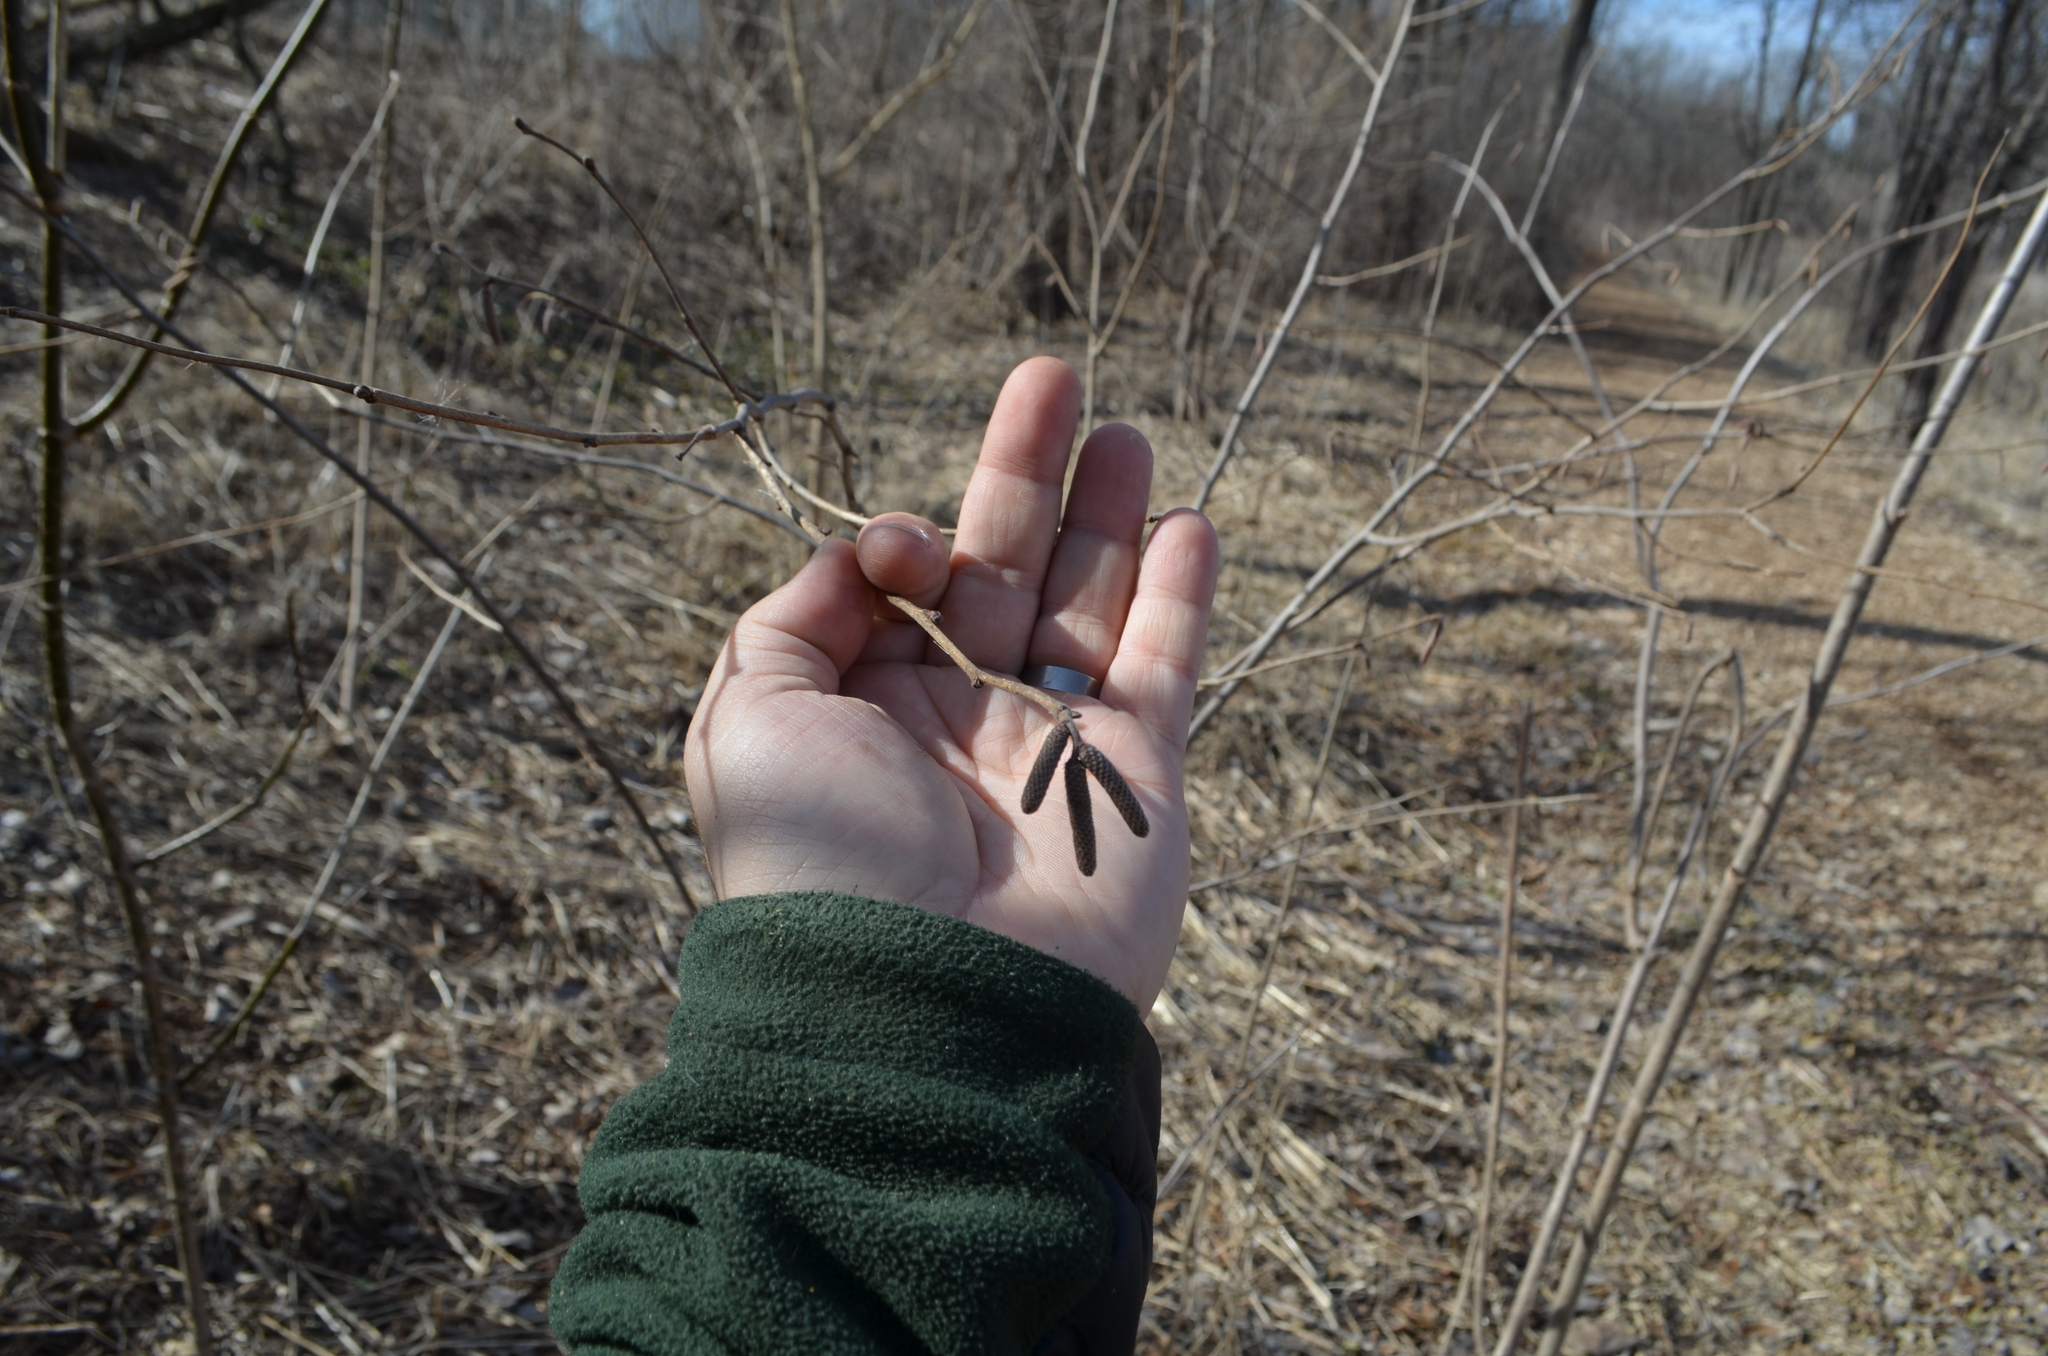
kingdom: Plantae
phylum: Tracheophyta
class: Magnoliopsida
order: Fagales
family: Betulaceae
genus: Corylus
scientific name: Corylus americana
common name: American hazel
